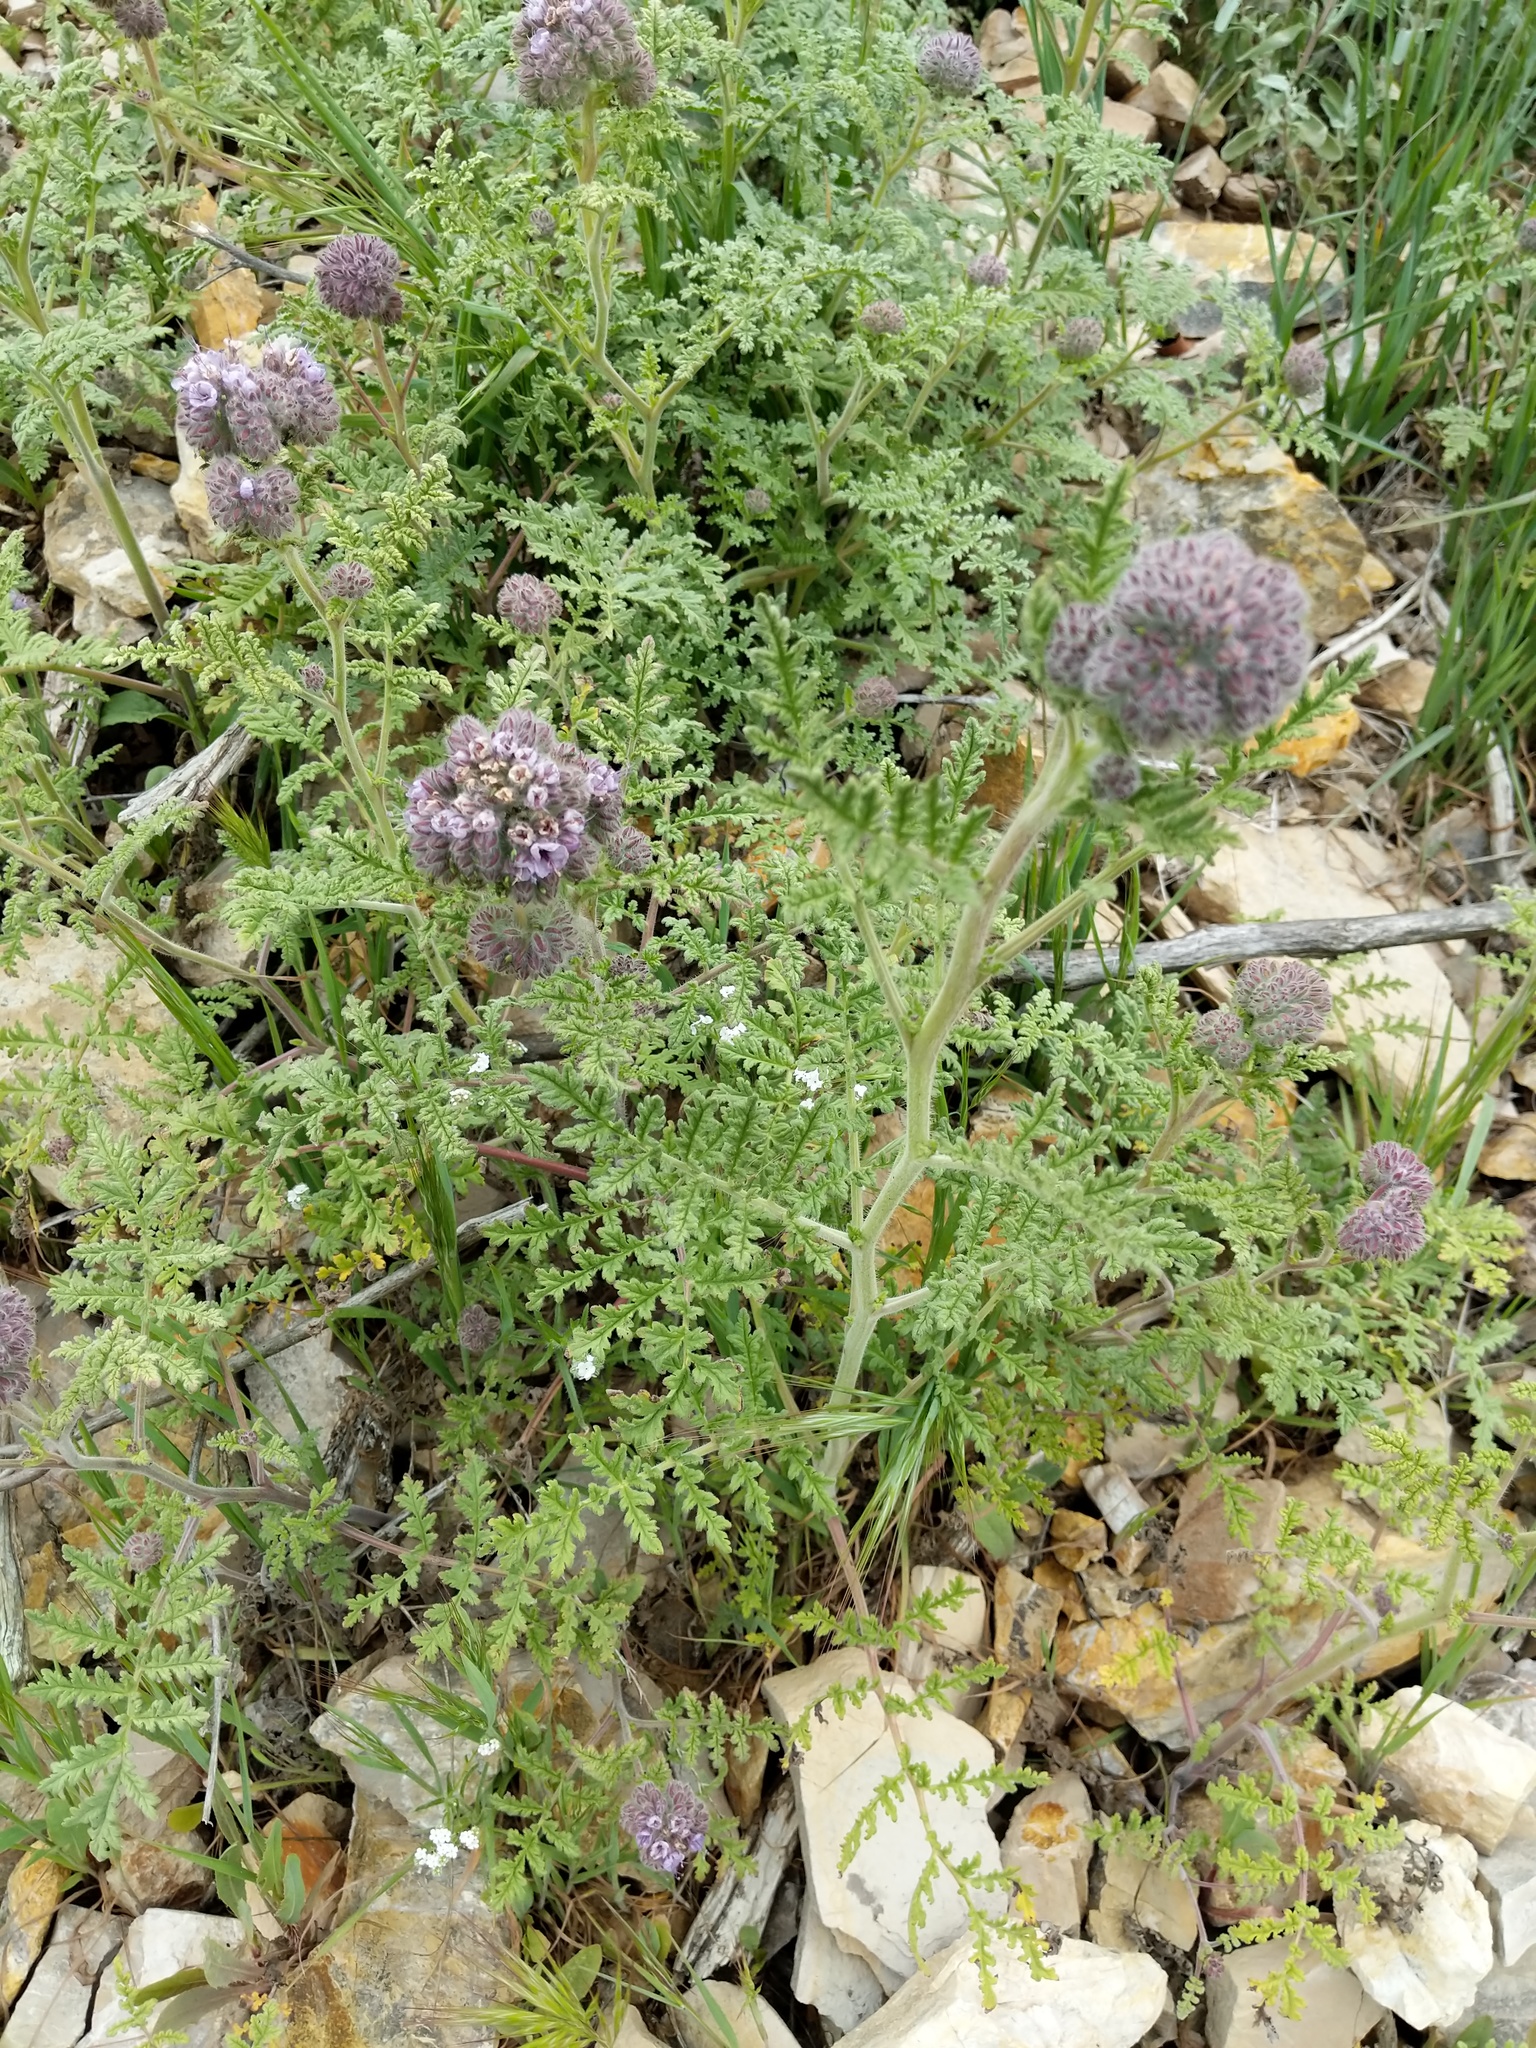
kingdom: Plantae
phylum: Tracheophyta
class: Magnoliopsida
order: Boraginales
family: Hydrophyllaceae
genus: Phacelia
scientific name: Phacelia hubbyi
